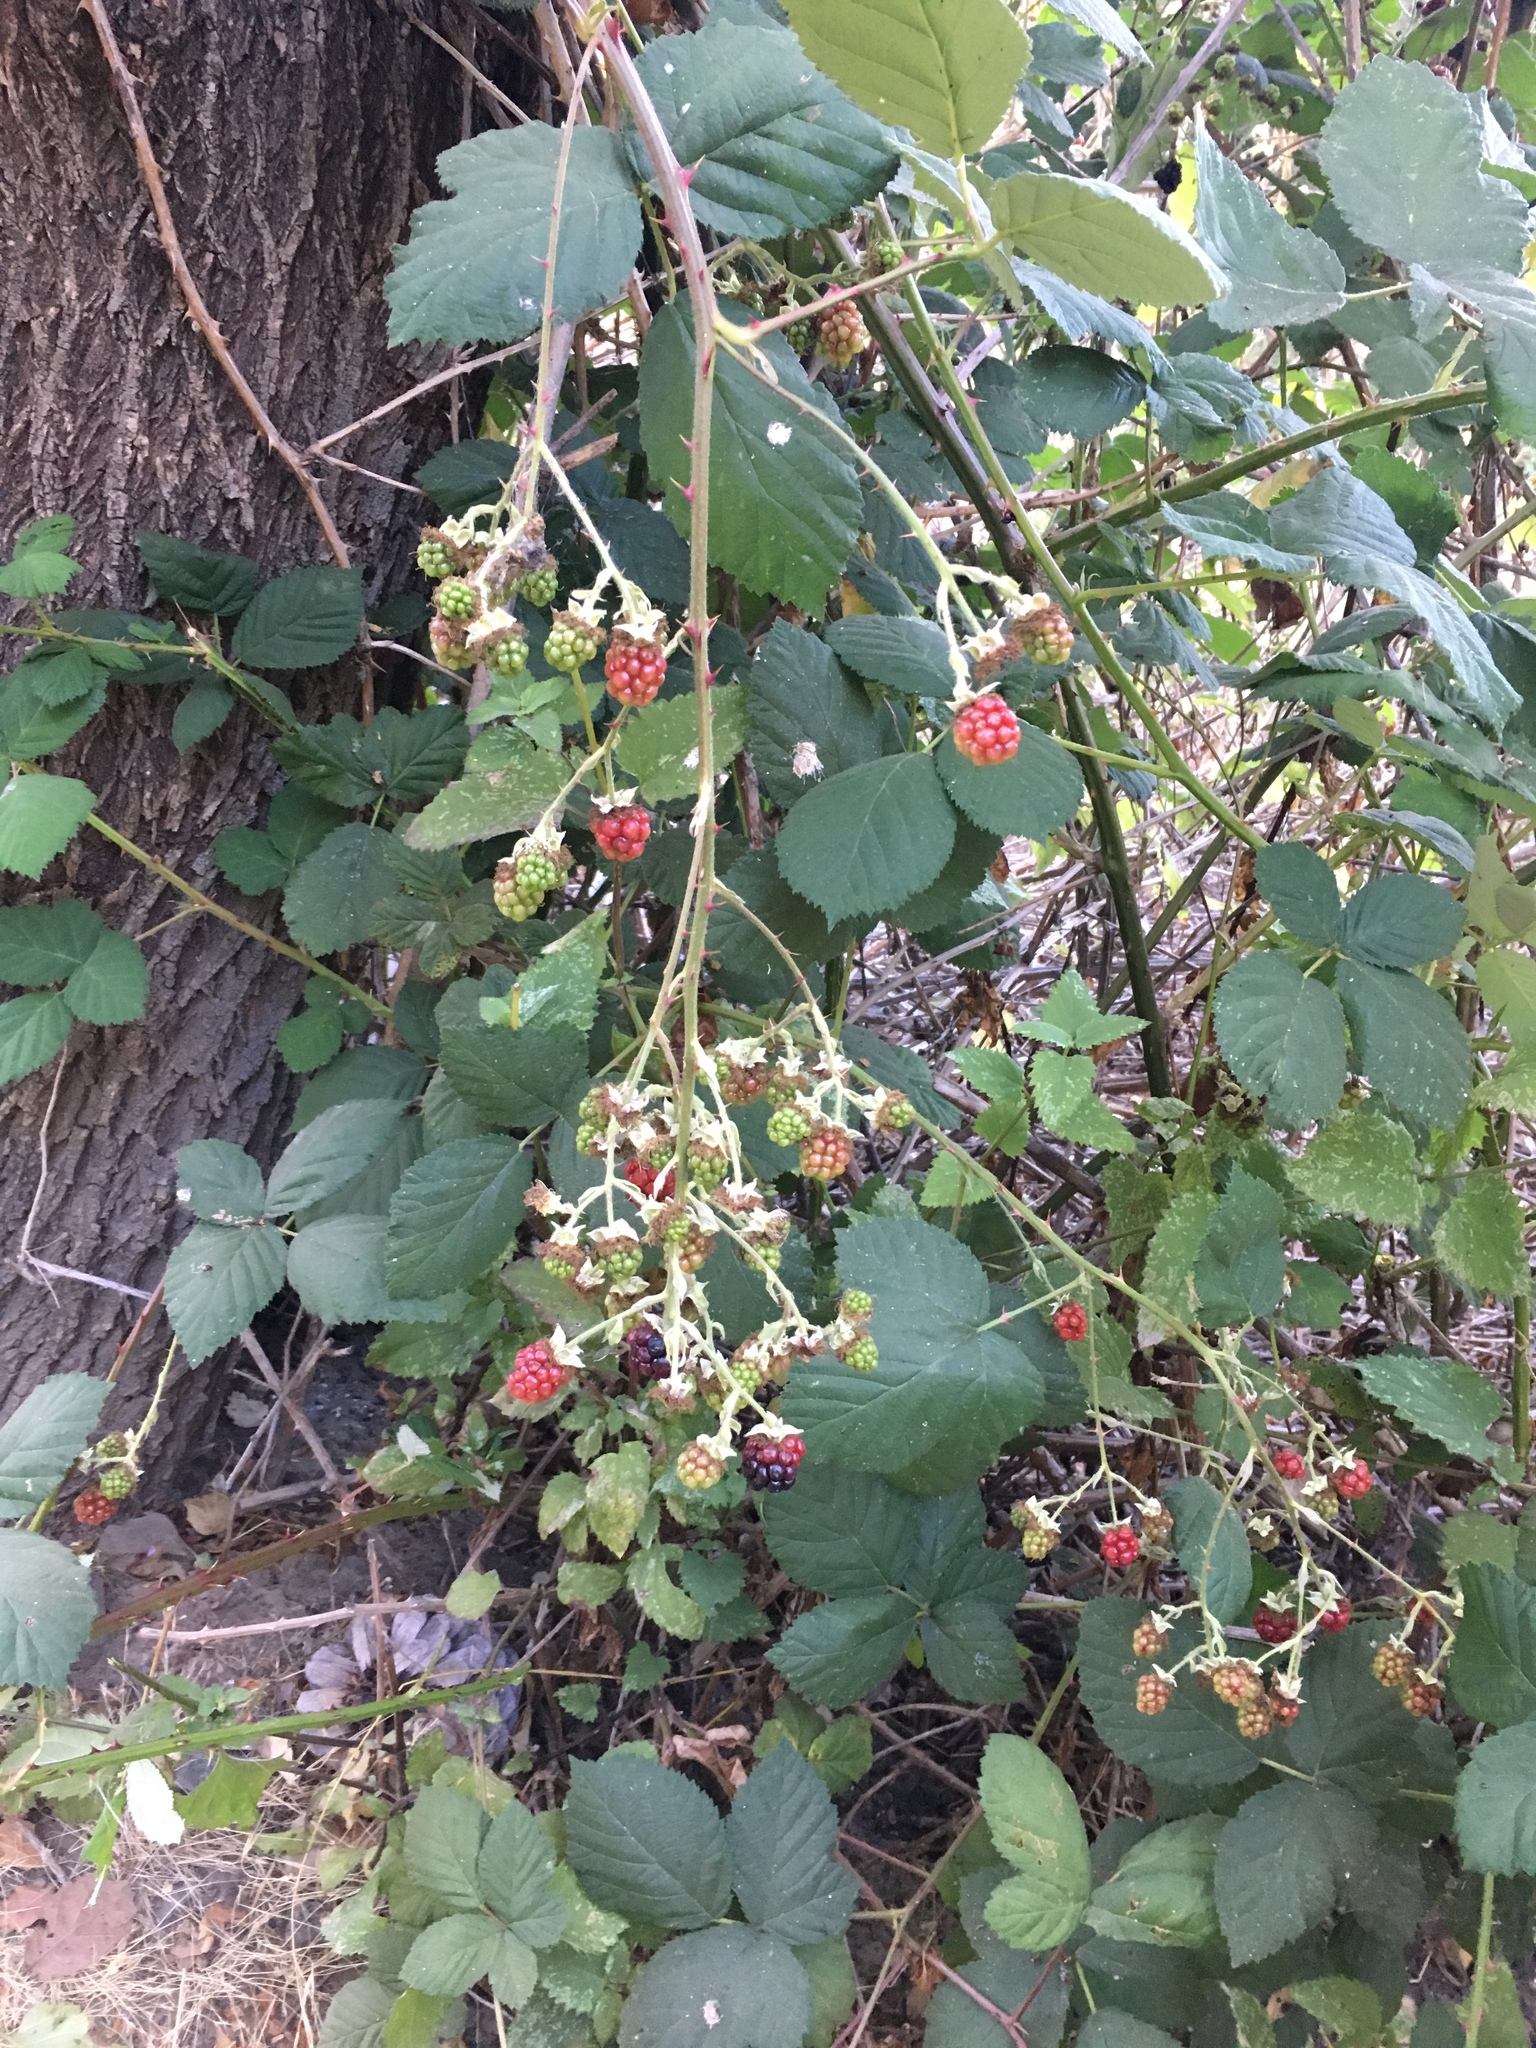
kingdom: Plantae
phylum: Tracheophyta
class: Magnoliopsida
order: Rosales
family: Rosaceae
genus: Rubus
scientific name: Rubus armeniacus
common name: Himalayan blackberry
